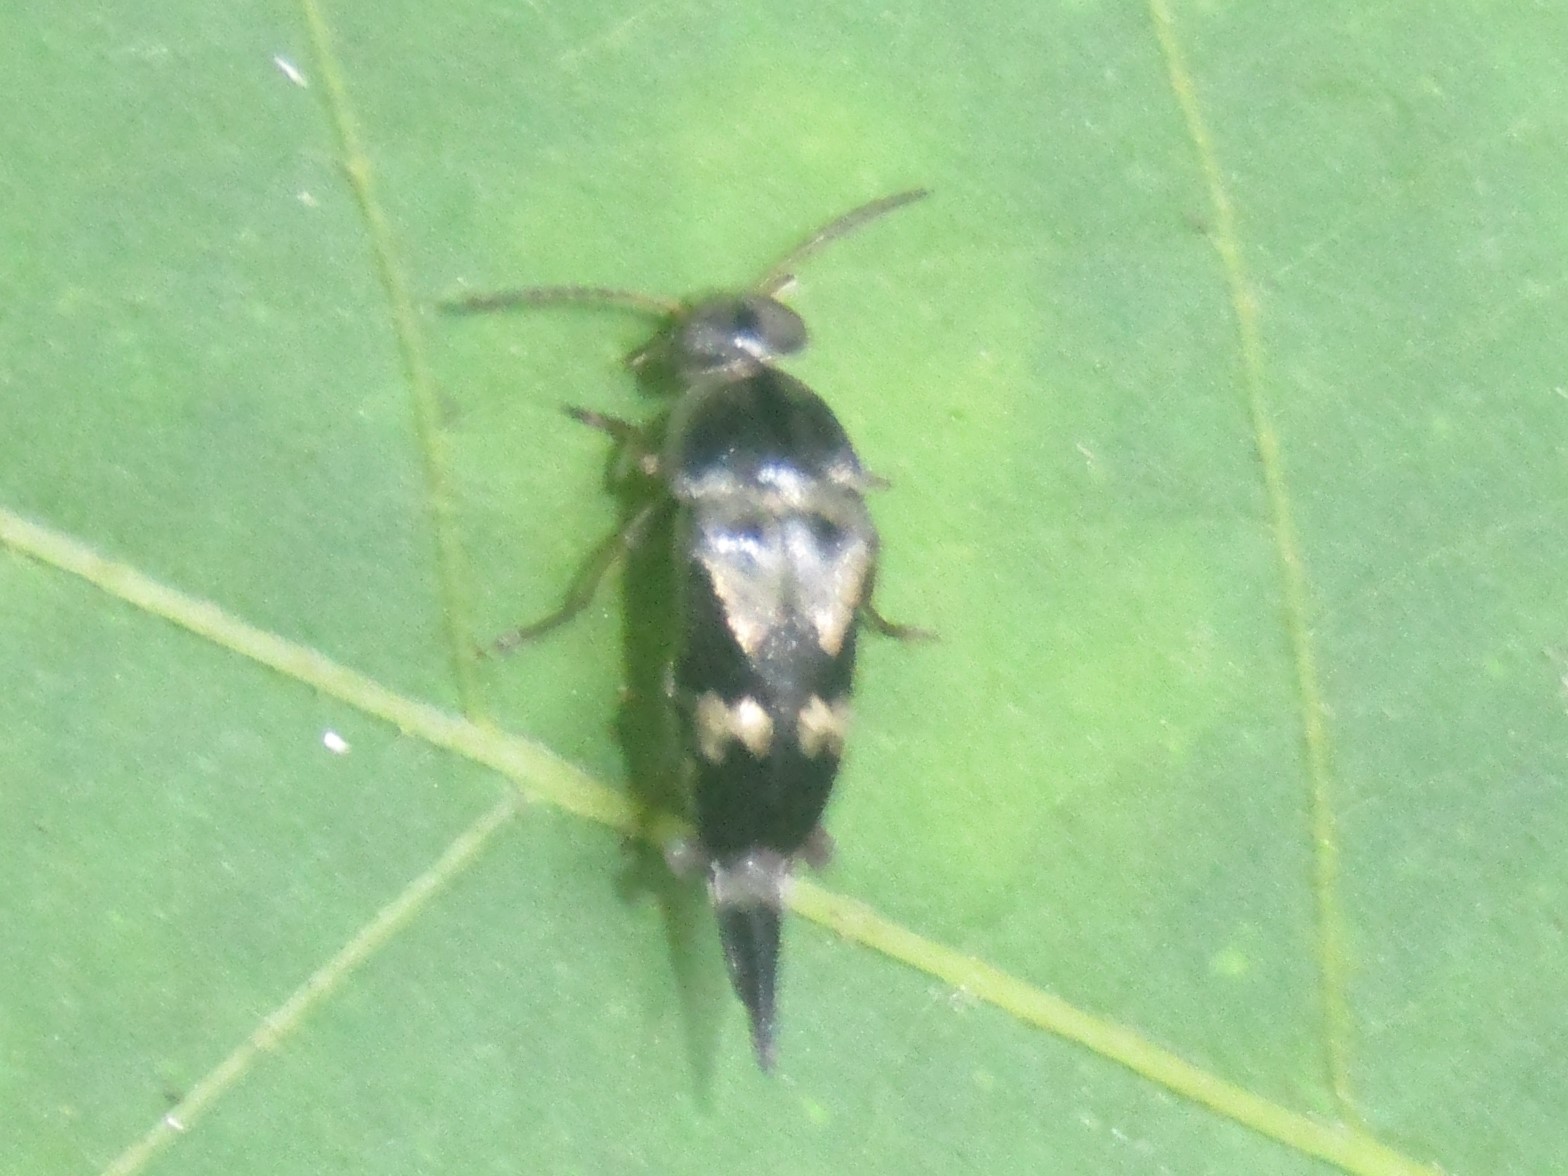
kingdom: Animalia
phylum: Arthropoda
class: Insecta
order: Coleoptera
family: Mordellidae
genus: Glipa
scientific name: Glipa oculata
